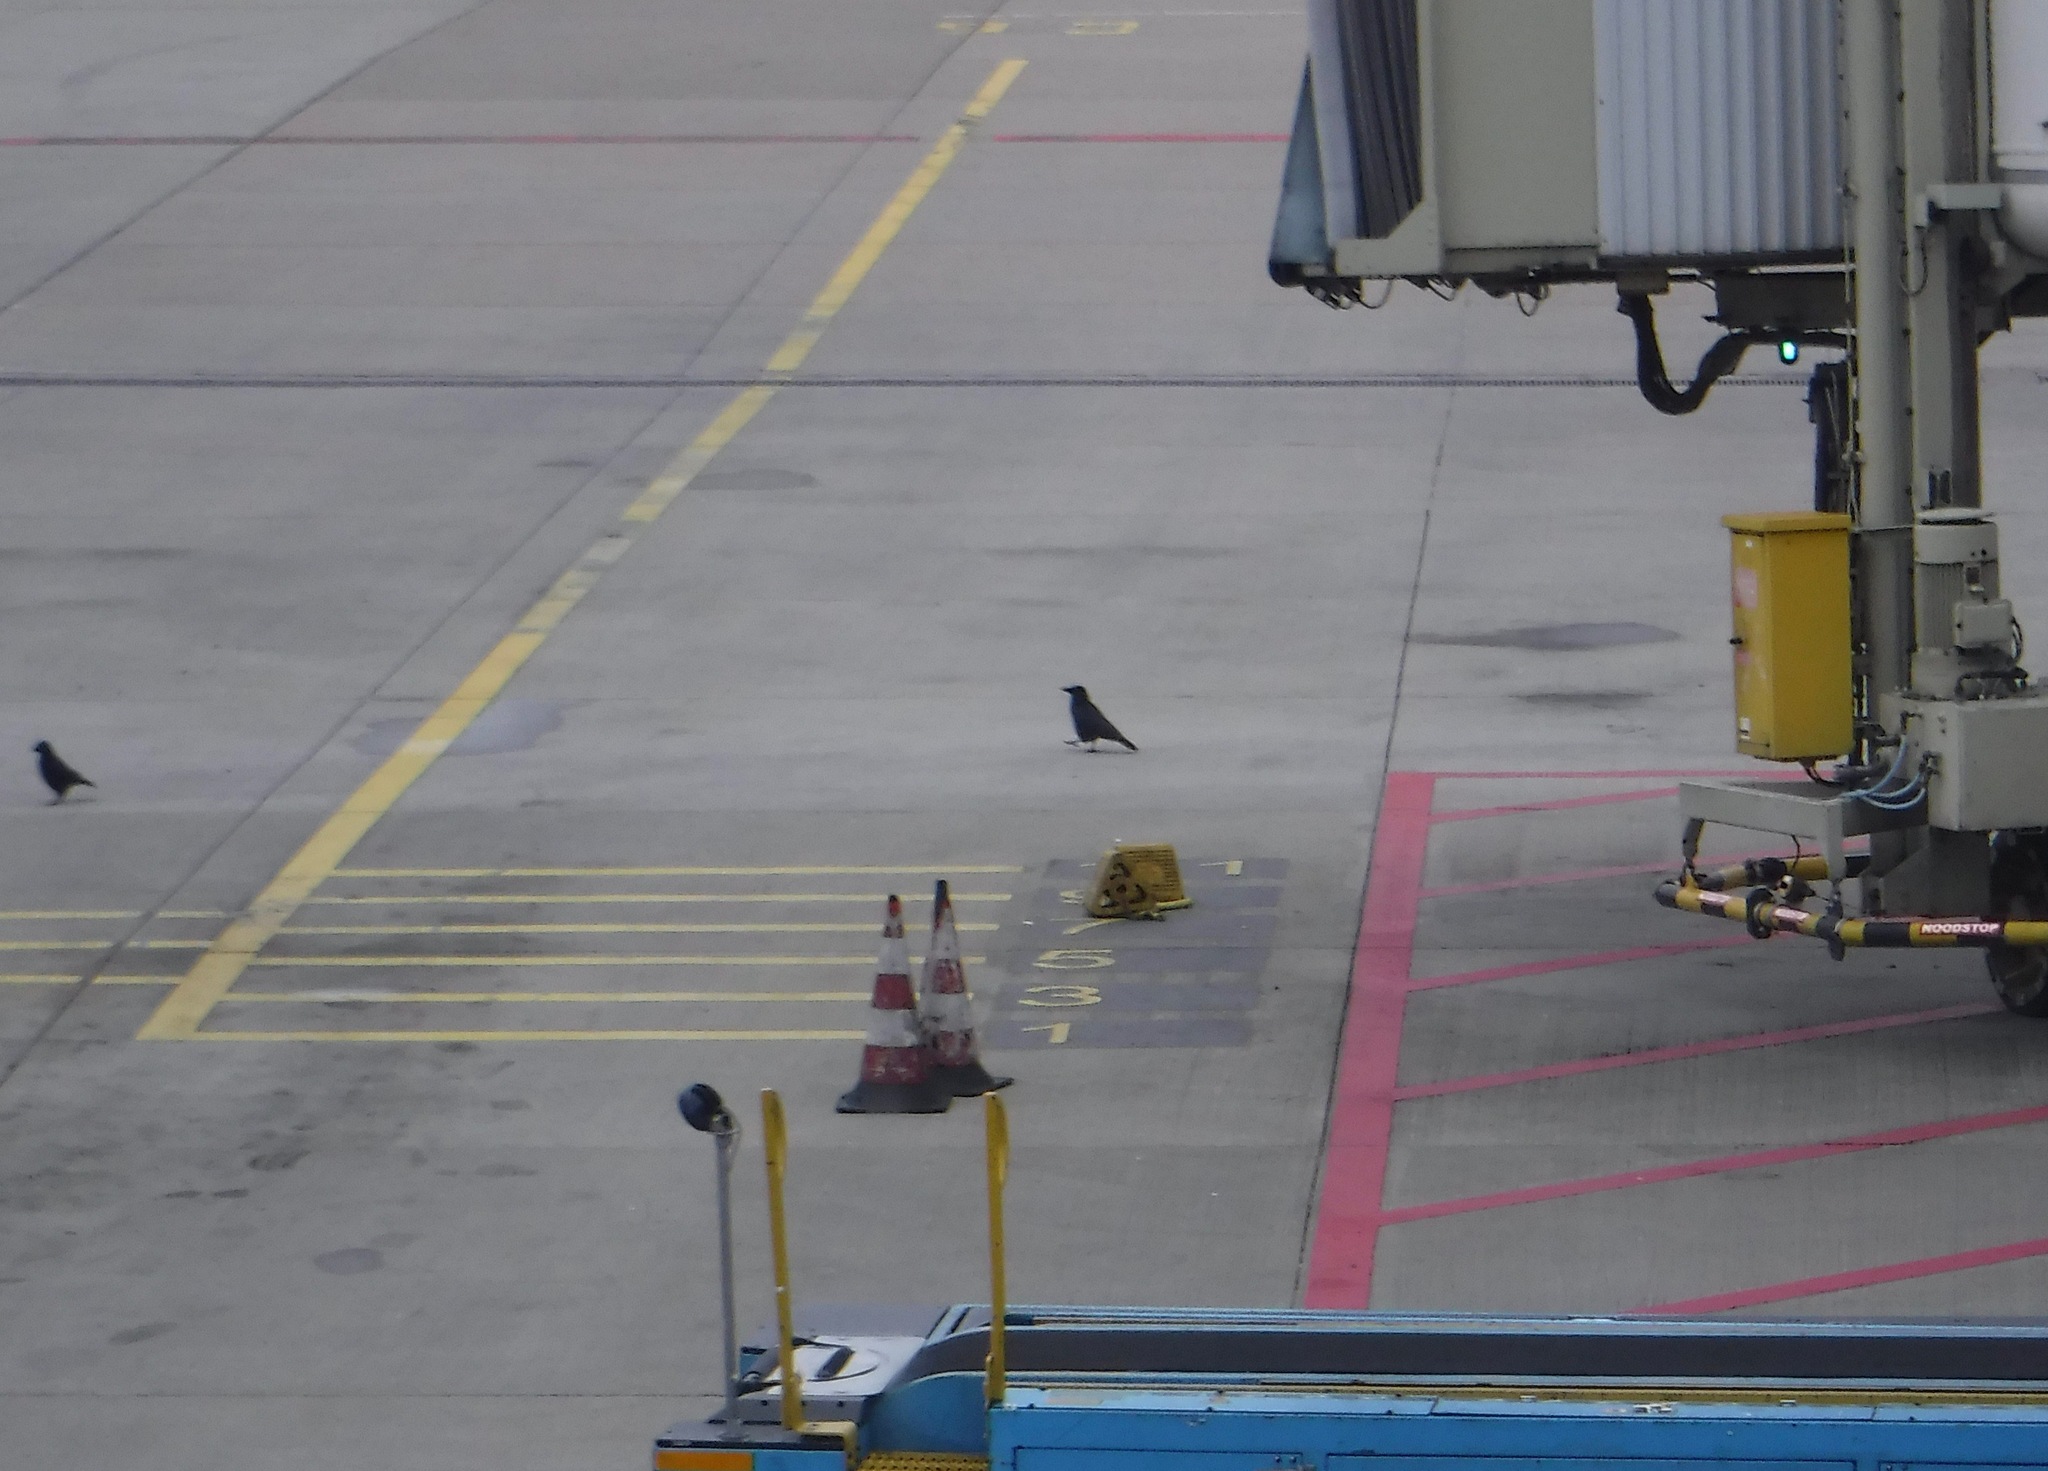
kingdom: Animalia
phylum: Chordata
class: Aves
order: Passeriformes
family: Corvidae
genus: Corvus
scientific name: Corvus corone
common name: Carrion crow
